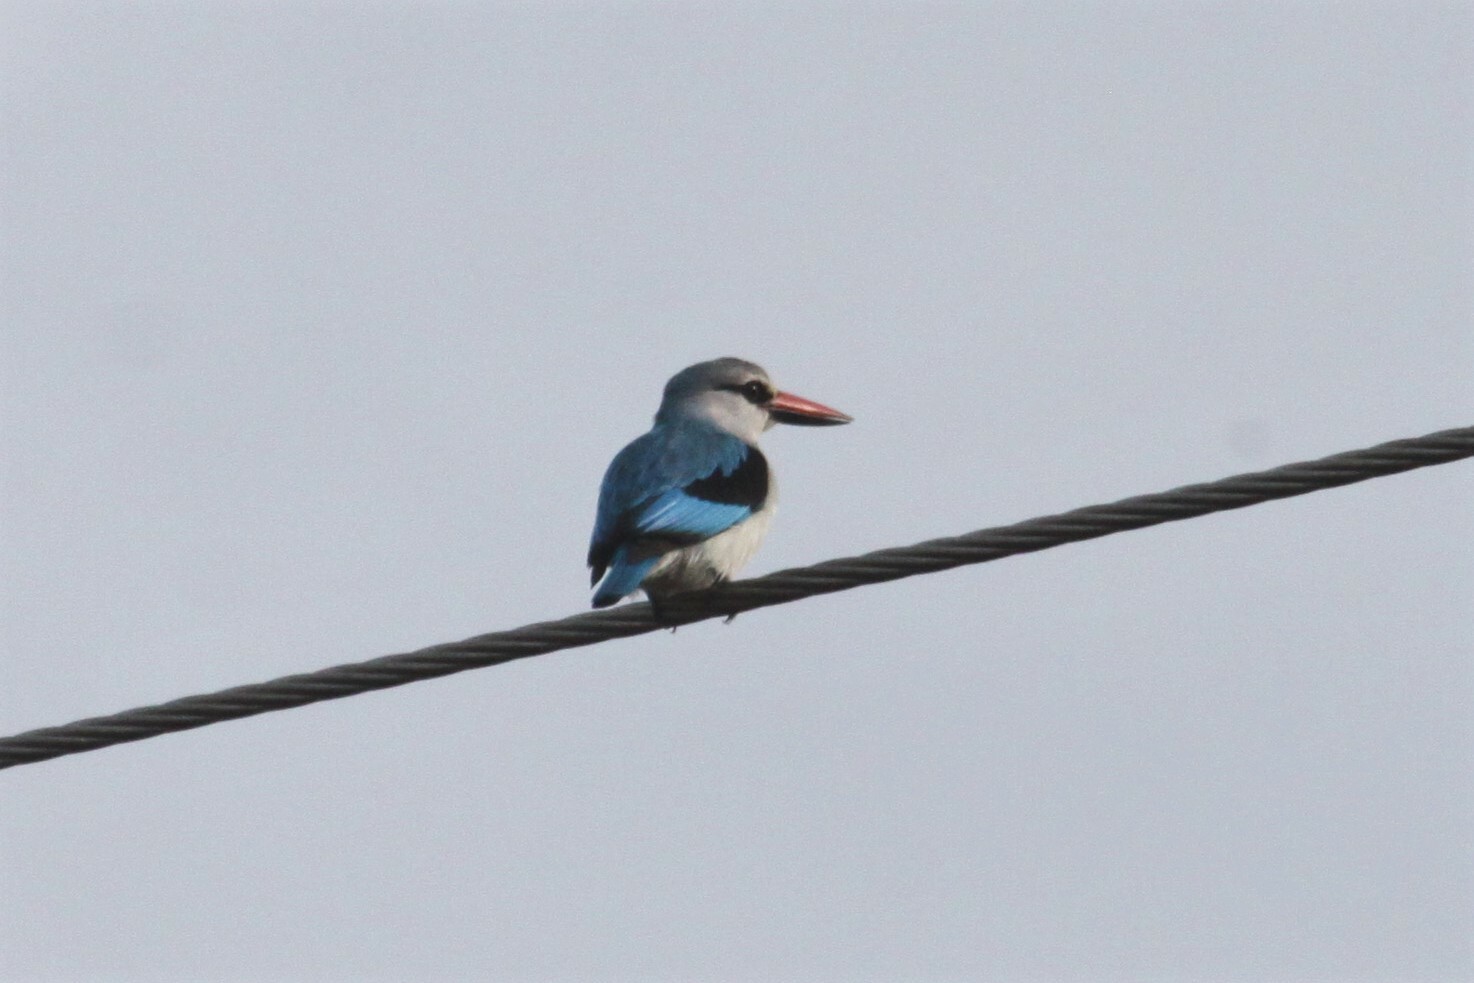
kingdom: Animalia
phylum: Chordata
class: Aves
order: Coraciiformes
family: Alcedinidae
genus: Halcyon
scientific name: Halcyon senegalensis
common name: Woodland kingfisher
